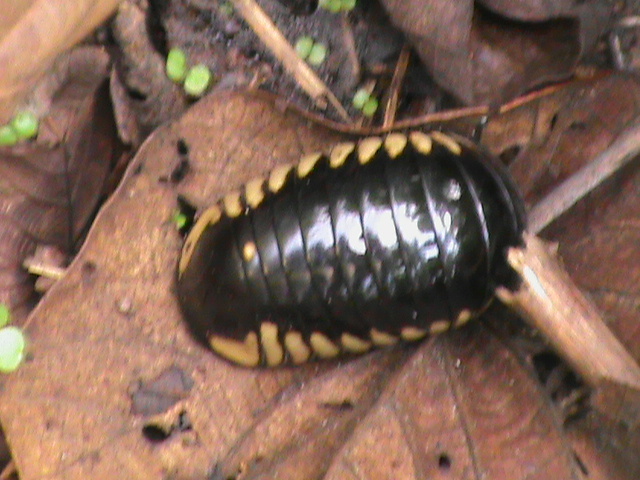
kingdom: Animalia
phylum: Arthropoda
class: Diplopoda
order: Sphaerotheriida
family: Arthrosphaeridae
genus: Arthrosphaera
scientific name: Arthrosphaera zebraica
